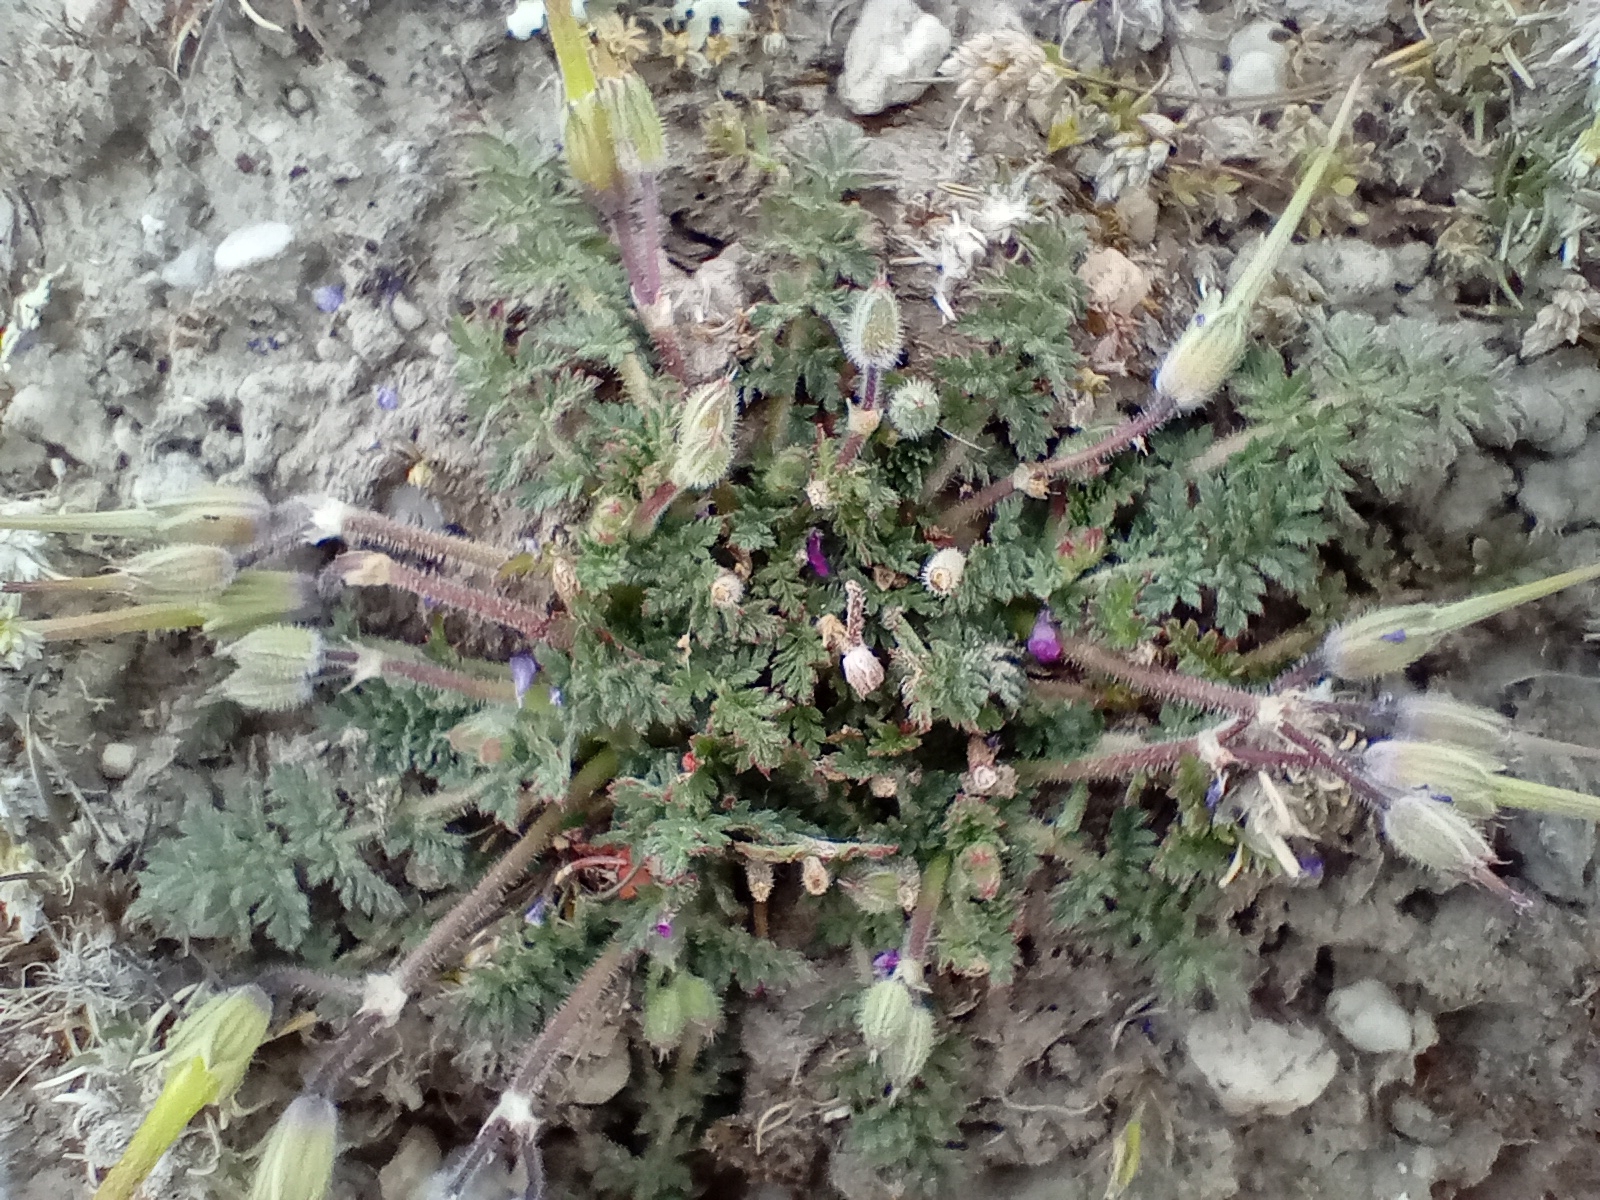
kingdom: Plantae
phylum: Tracheophyta
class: Magnoliopsida
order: Geraniales
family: Geraniaceae
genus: Erodium
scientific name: Erodium cicutarium
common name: Common stork's-bill
